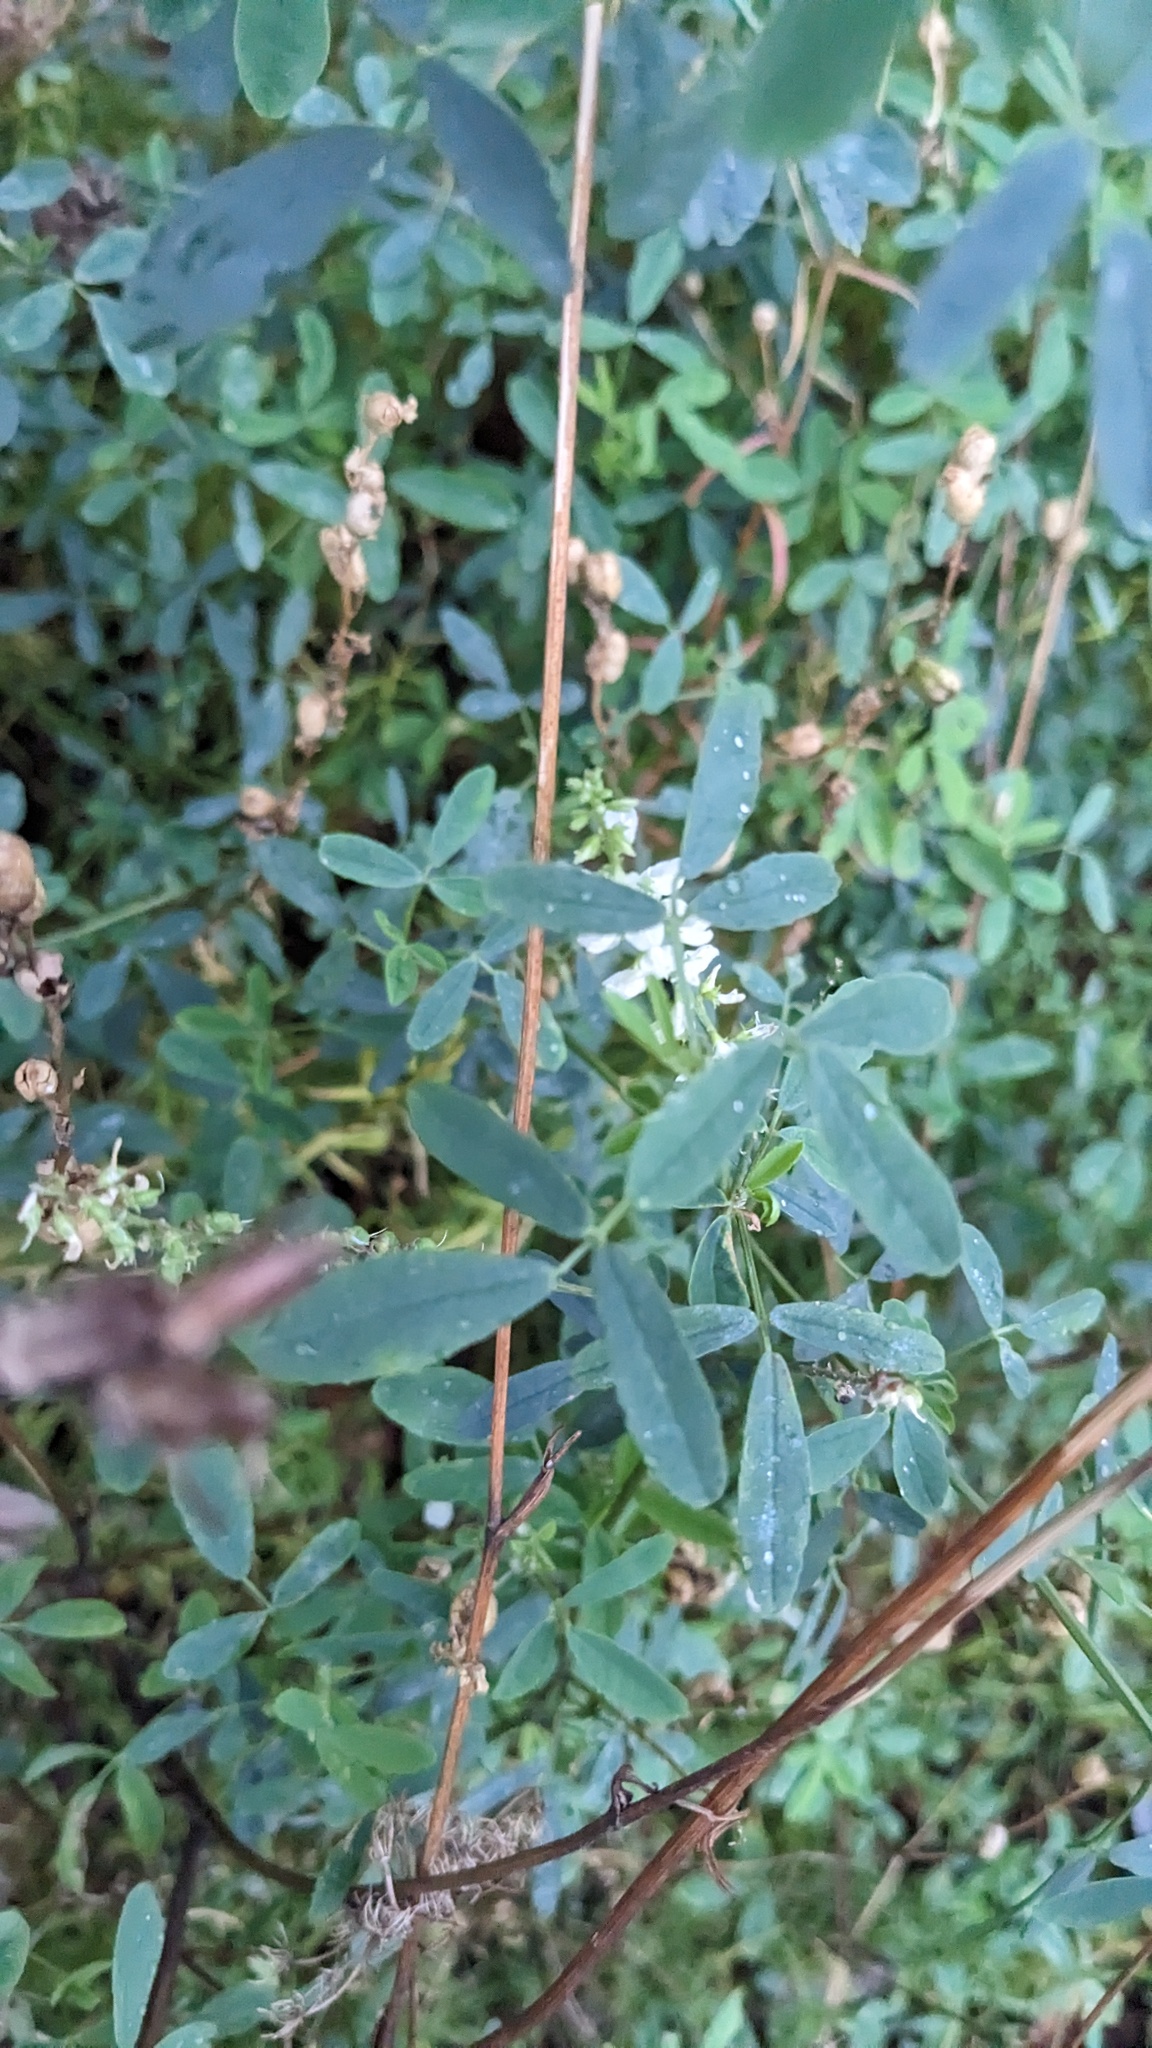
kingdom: Plantae
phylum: Tracheophyta
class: Magnoliopsida
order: Fabales
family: Fabaceae
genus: Melilotus
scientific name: Melilotus albus
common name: White melilot
